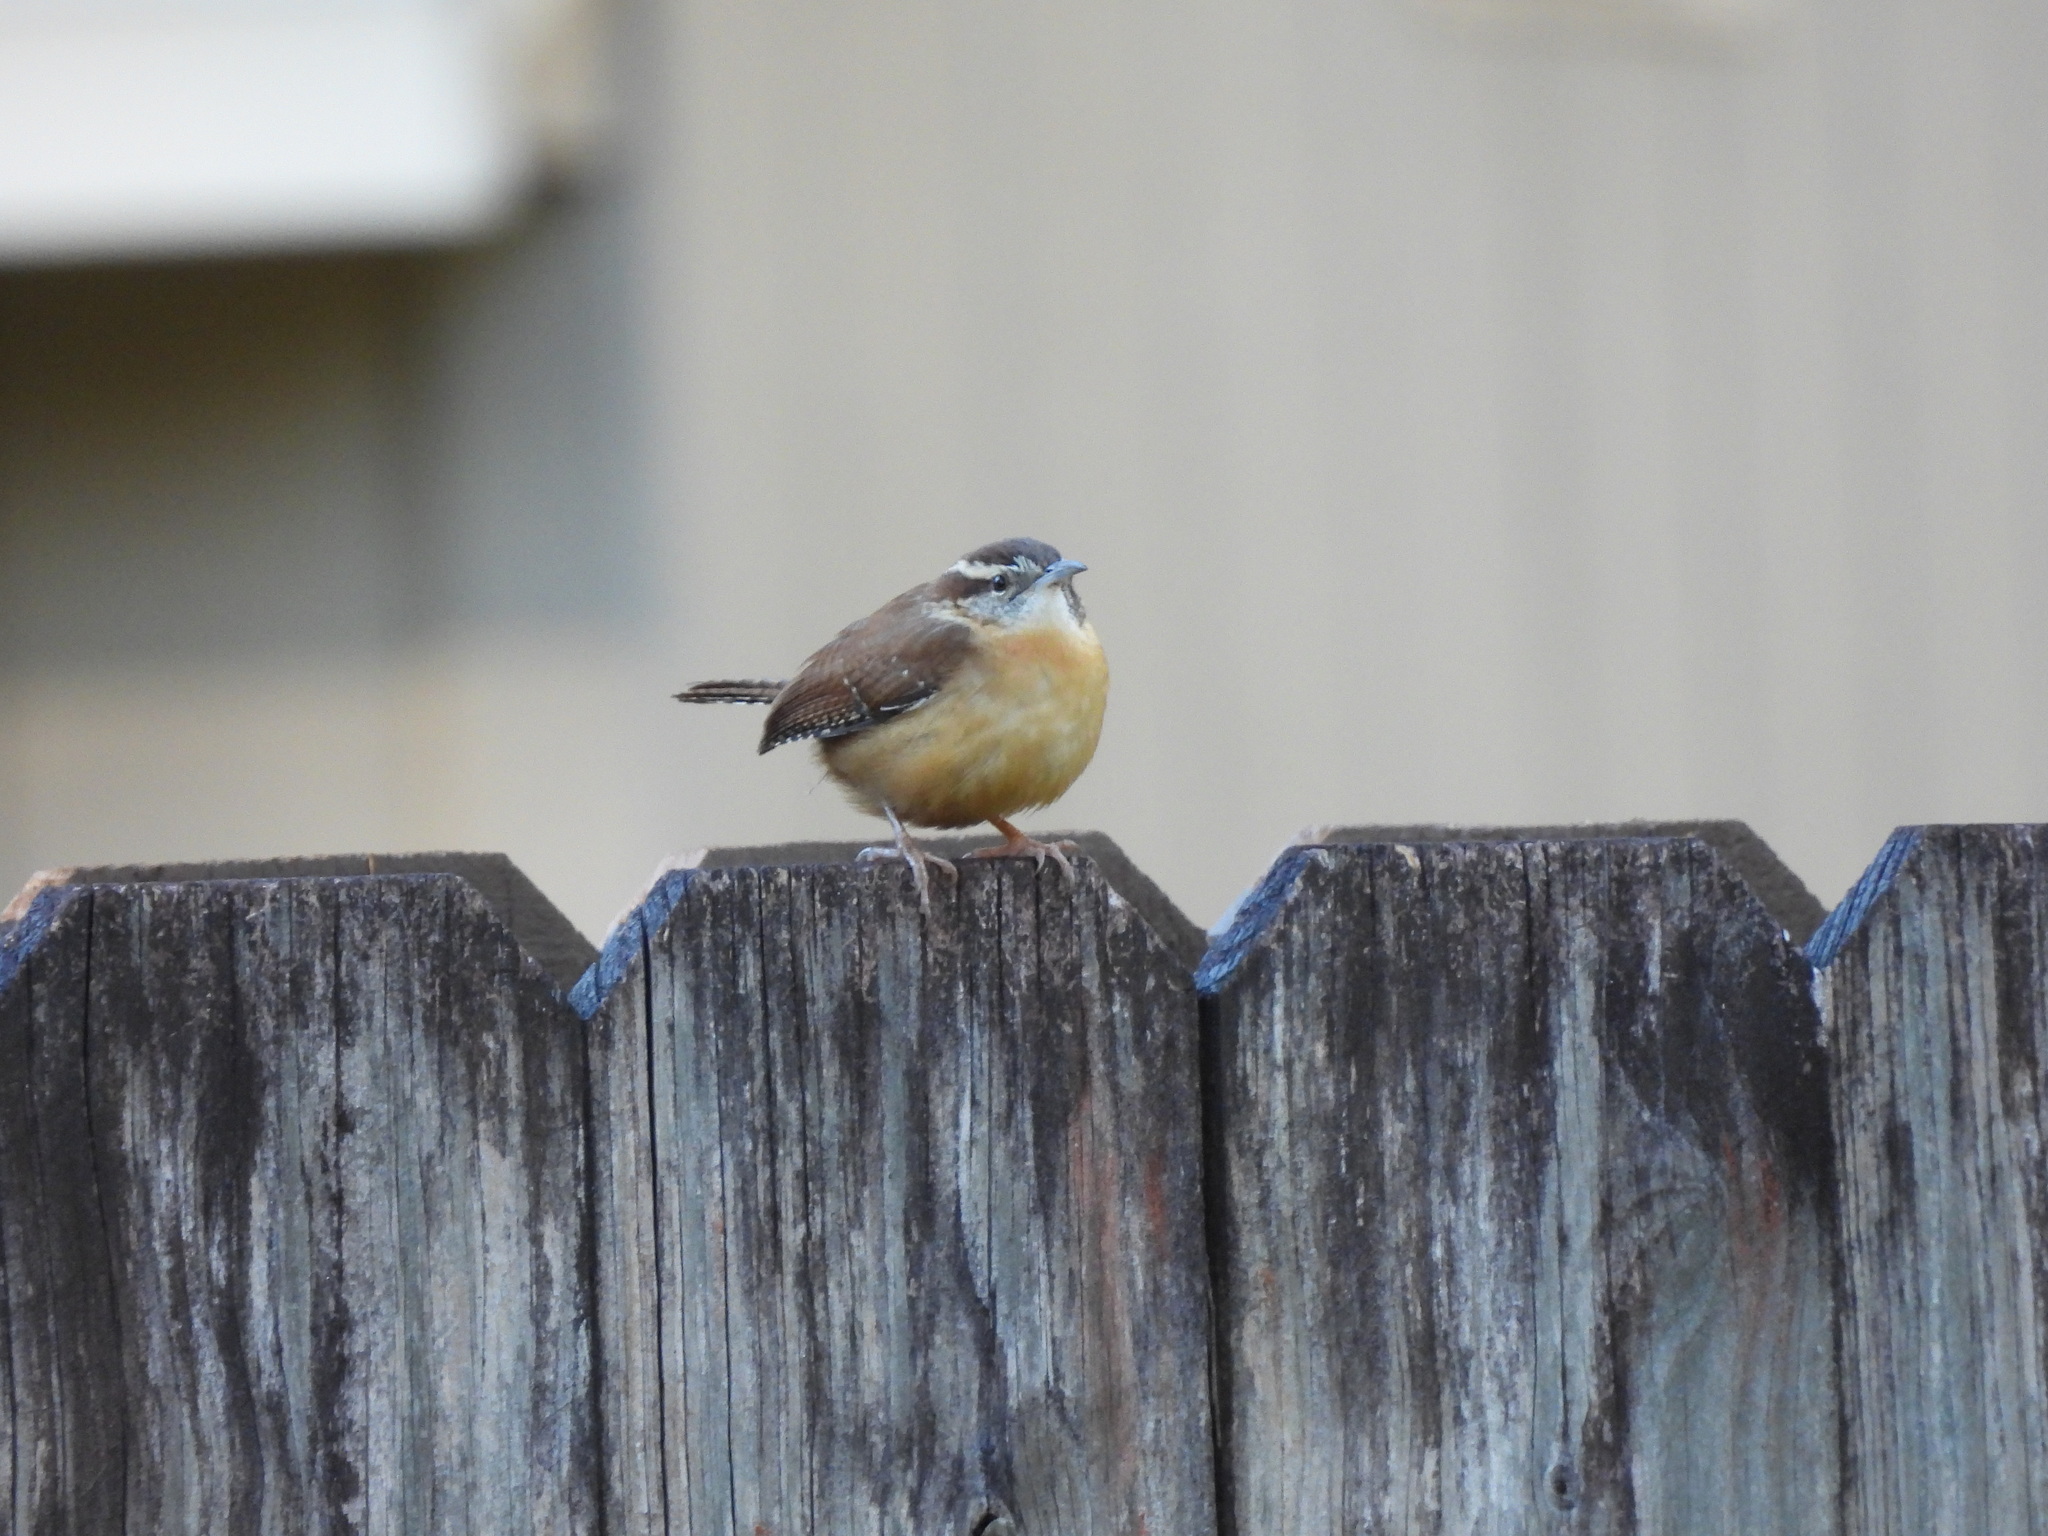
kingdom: Animalia
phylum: Chordata
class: Aves
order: Passeriformes
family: Troglodytidae
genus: Thryothorus
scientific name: Thryothorus ludovicianus
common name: Carolina wren
